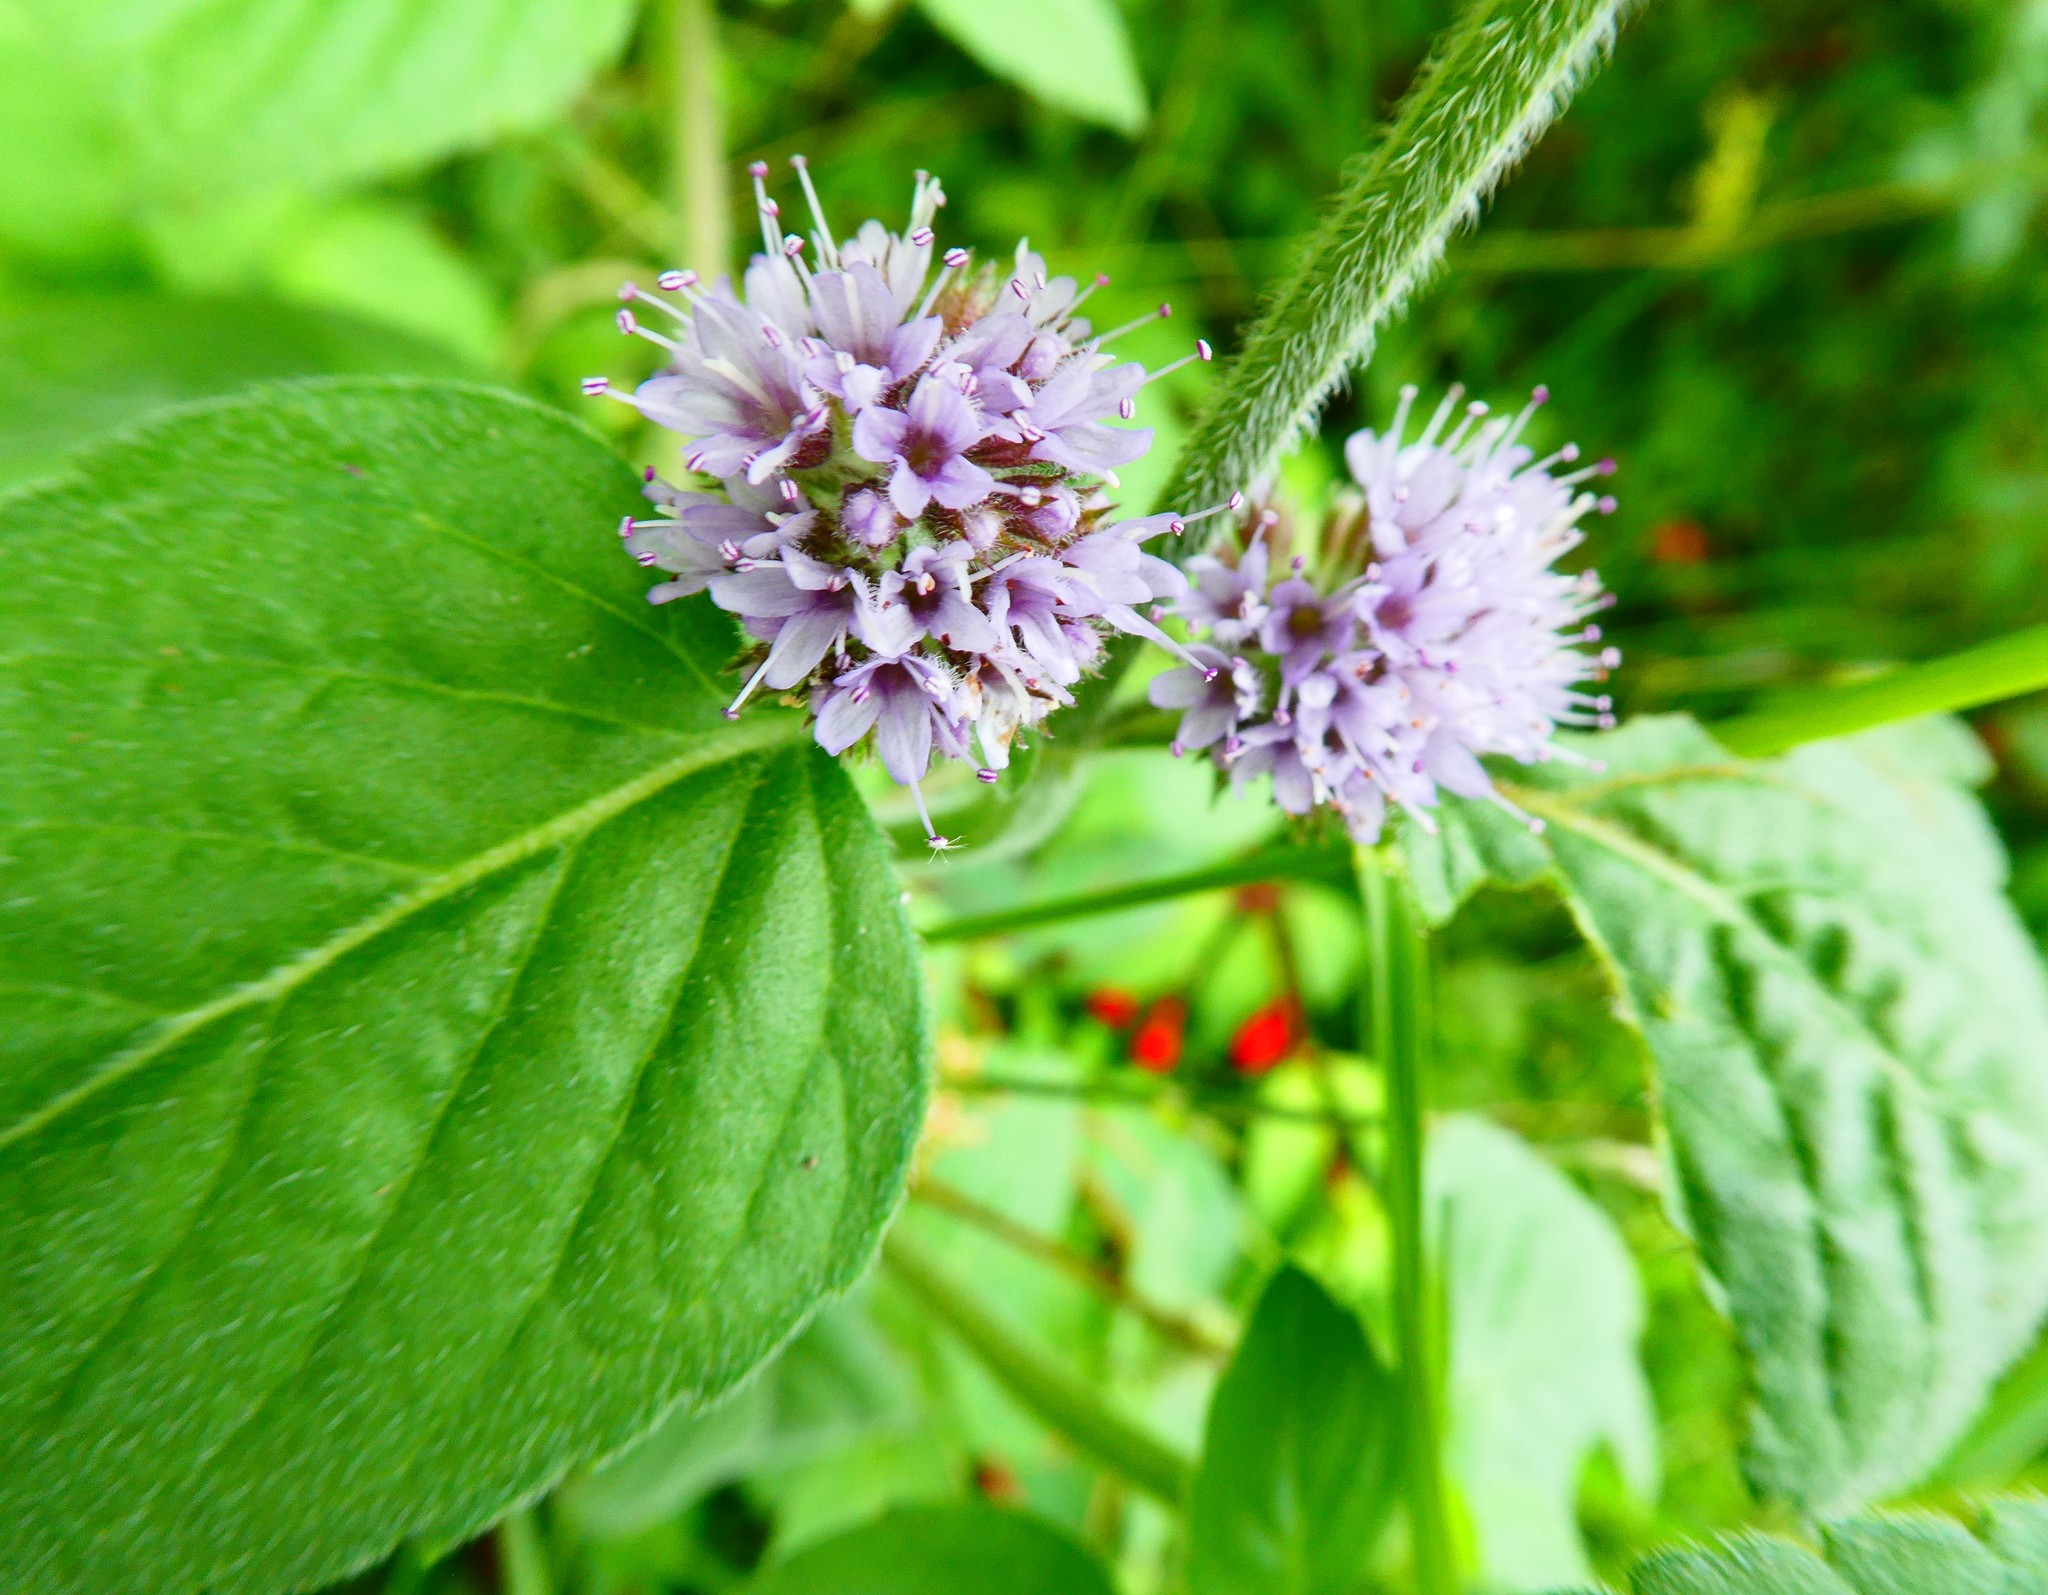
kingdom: Plantae
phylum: Tracheophyta
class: Magnoliopsida
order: Lamiales
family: Lamiaceae
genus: Mentha
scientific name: Mentha aquatica
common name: Water mint
